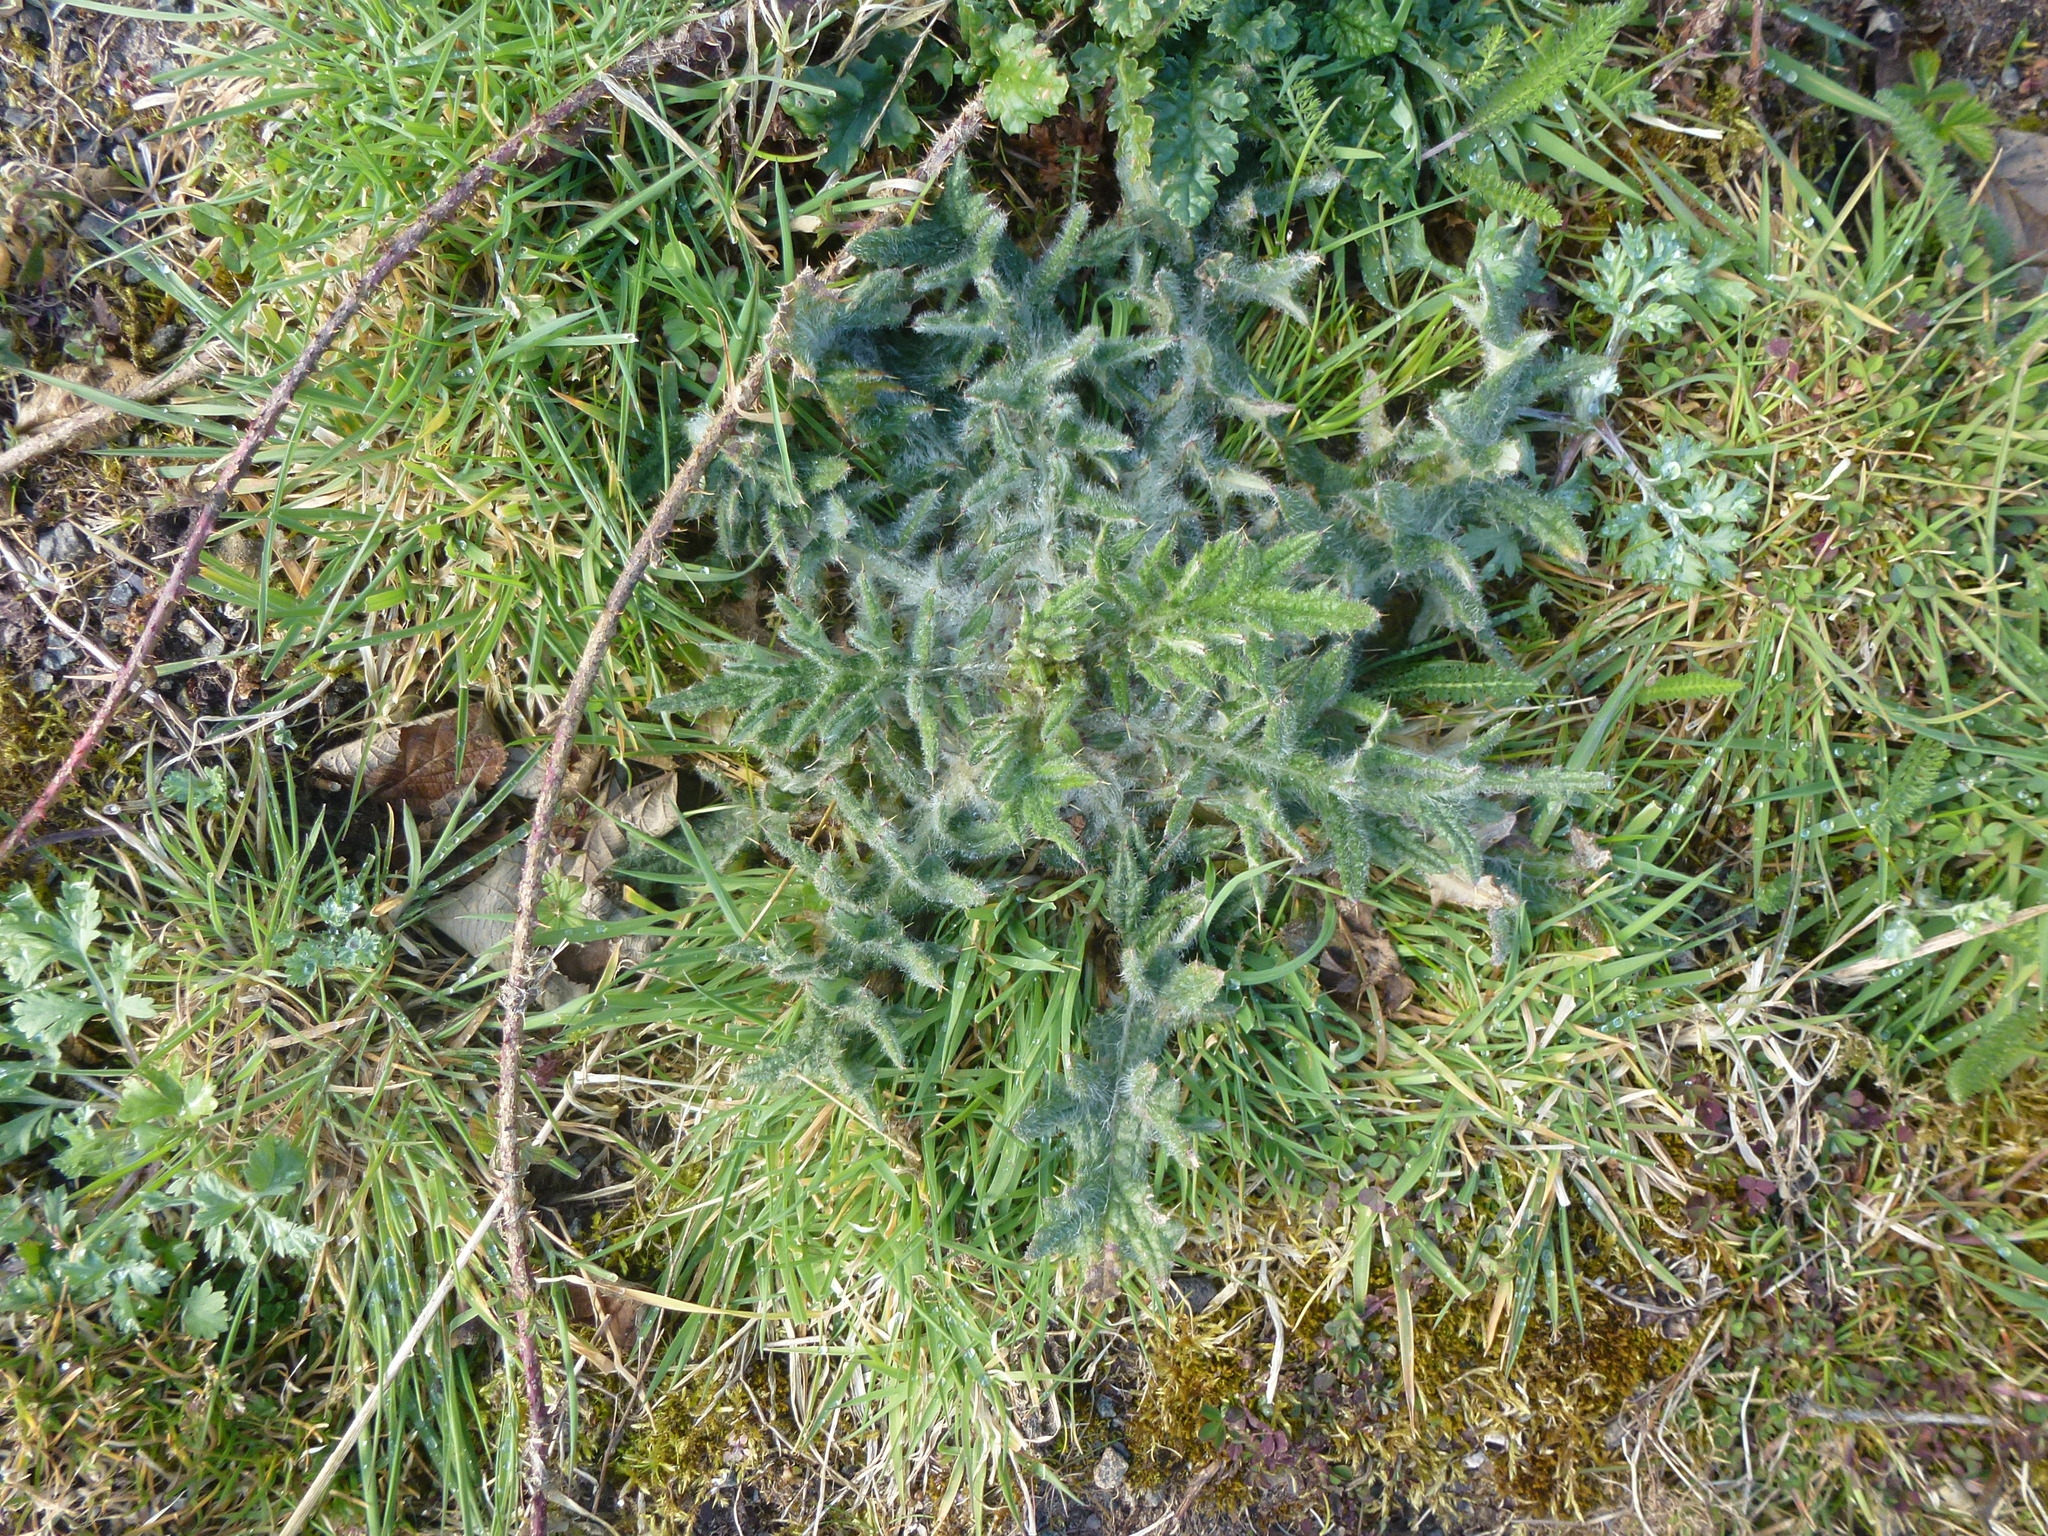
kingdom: Plantae
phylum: Tracheophyta
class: Magnoliopsida
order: Asterales
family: Asteraceae
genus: Cirsium
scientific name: Cirsium vulgare
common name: Bull thistle
